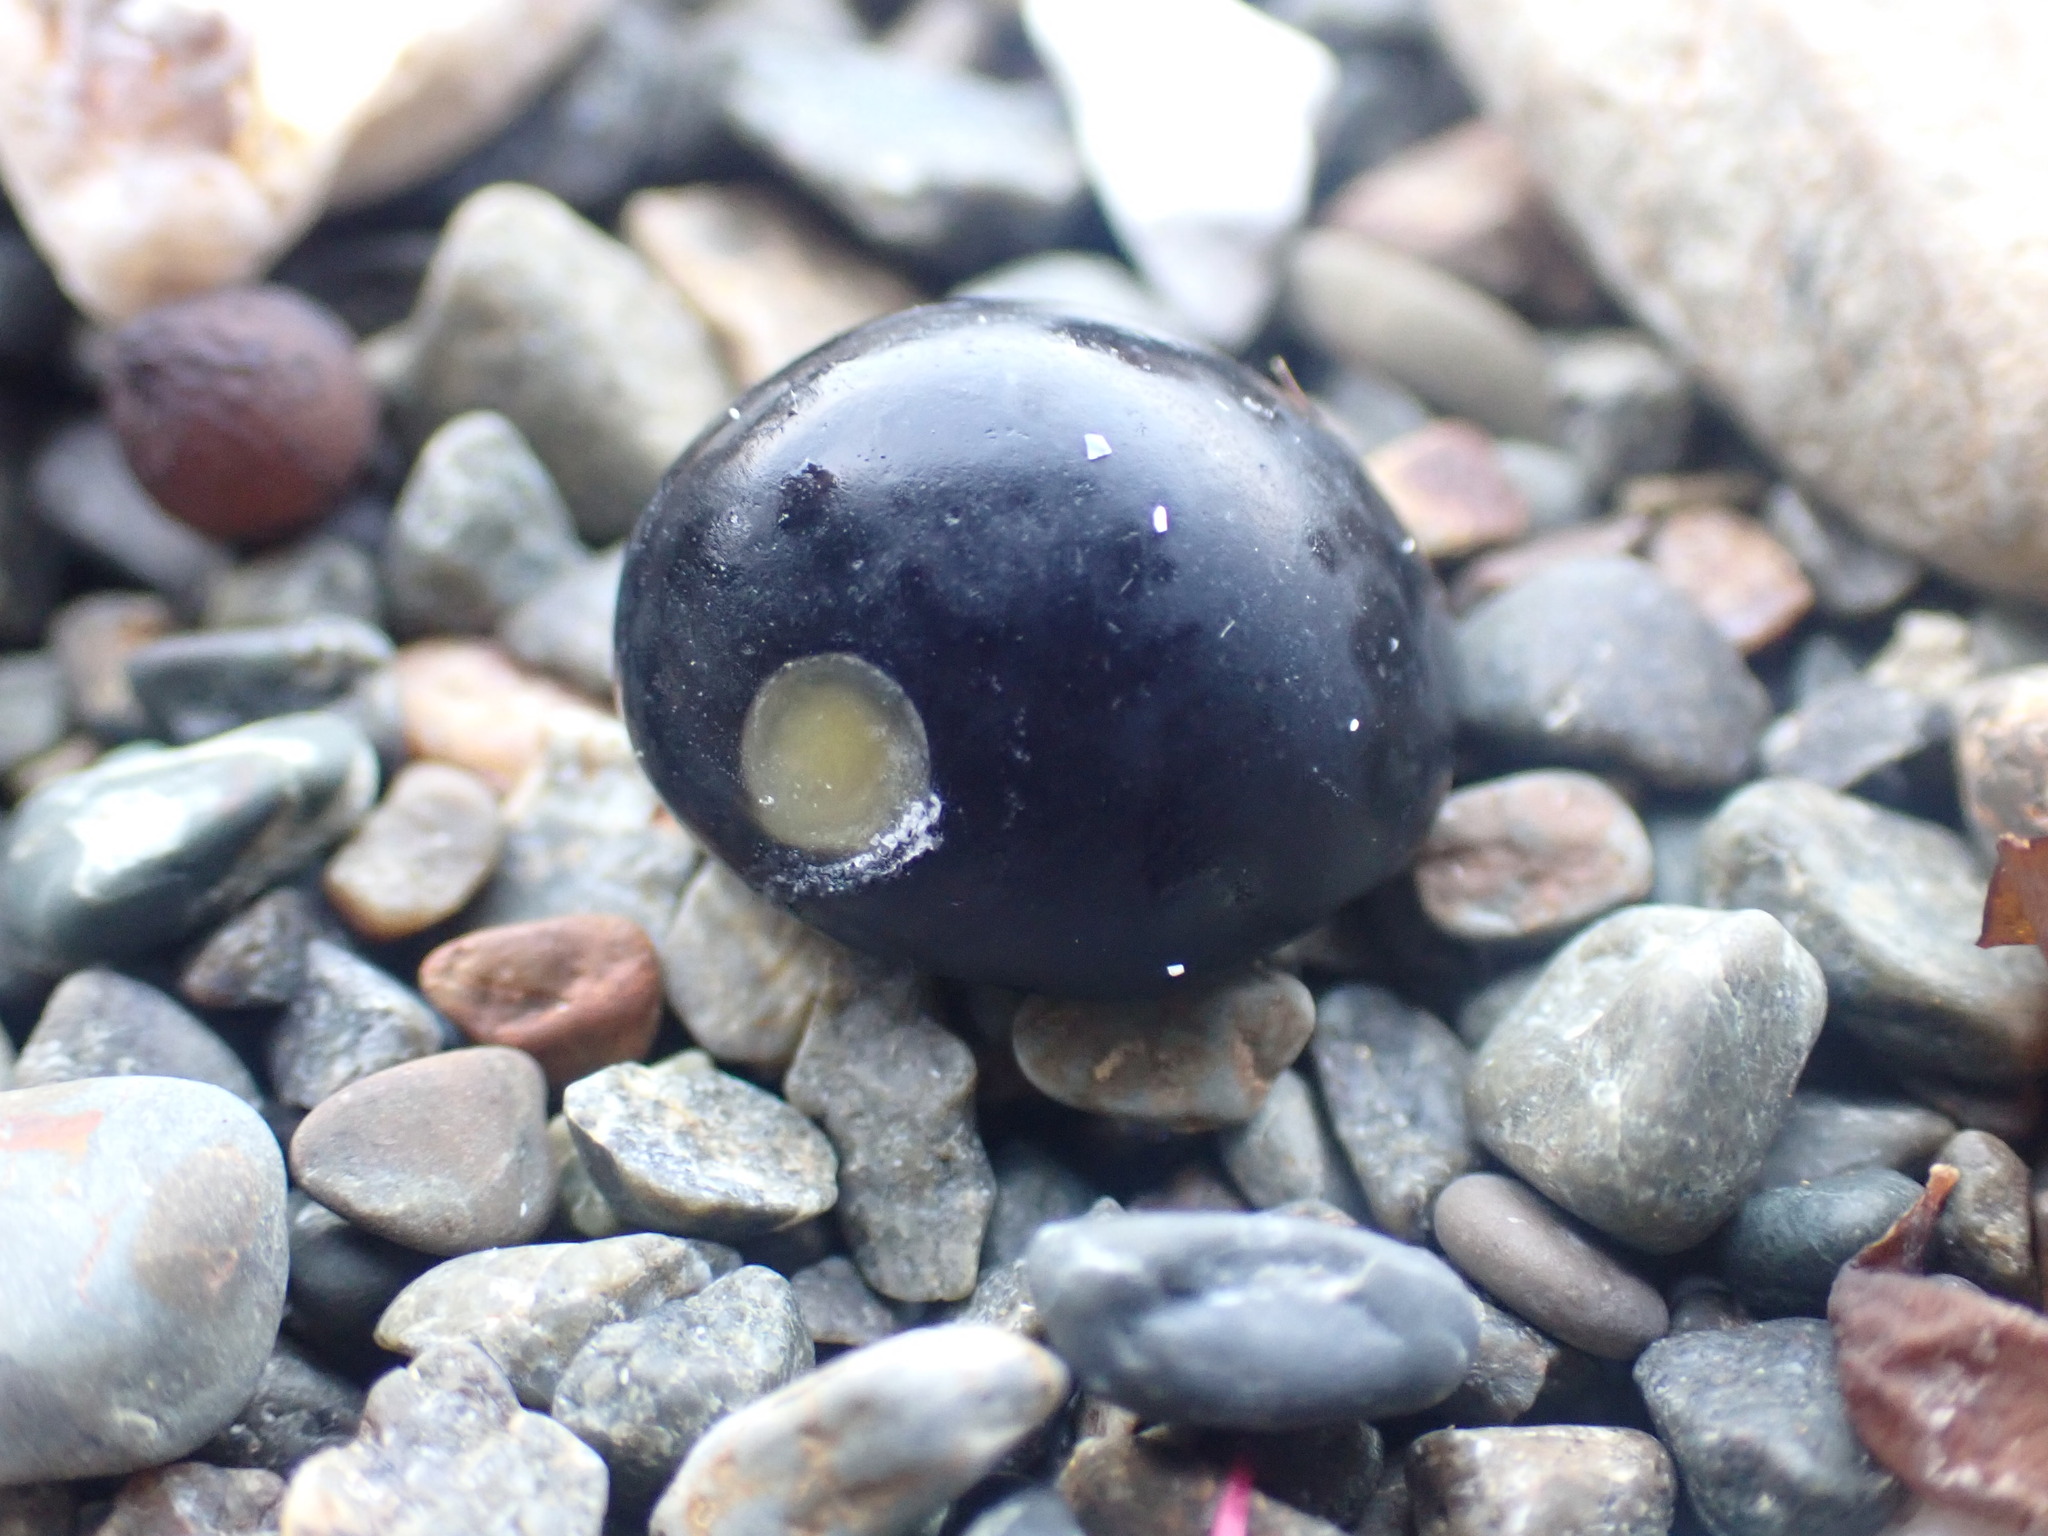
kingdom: Animalia
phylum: Mollusca
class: Gastropoda
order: Cycloneritida
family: Neritidae
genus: Nerita
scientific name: Nerita melanotragus
